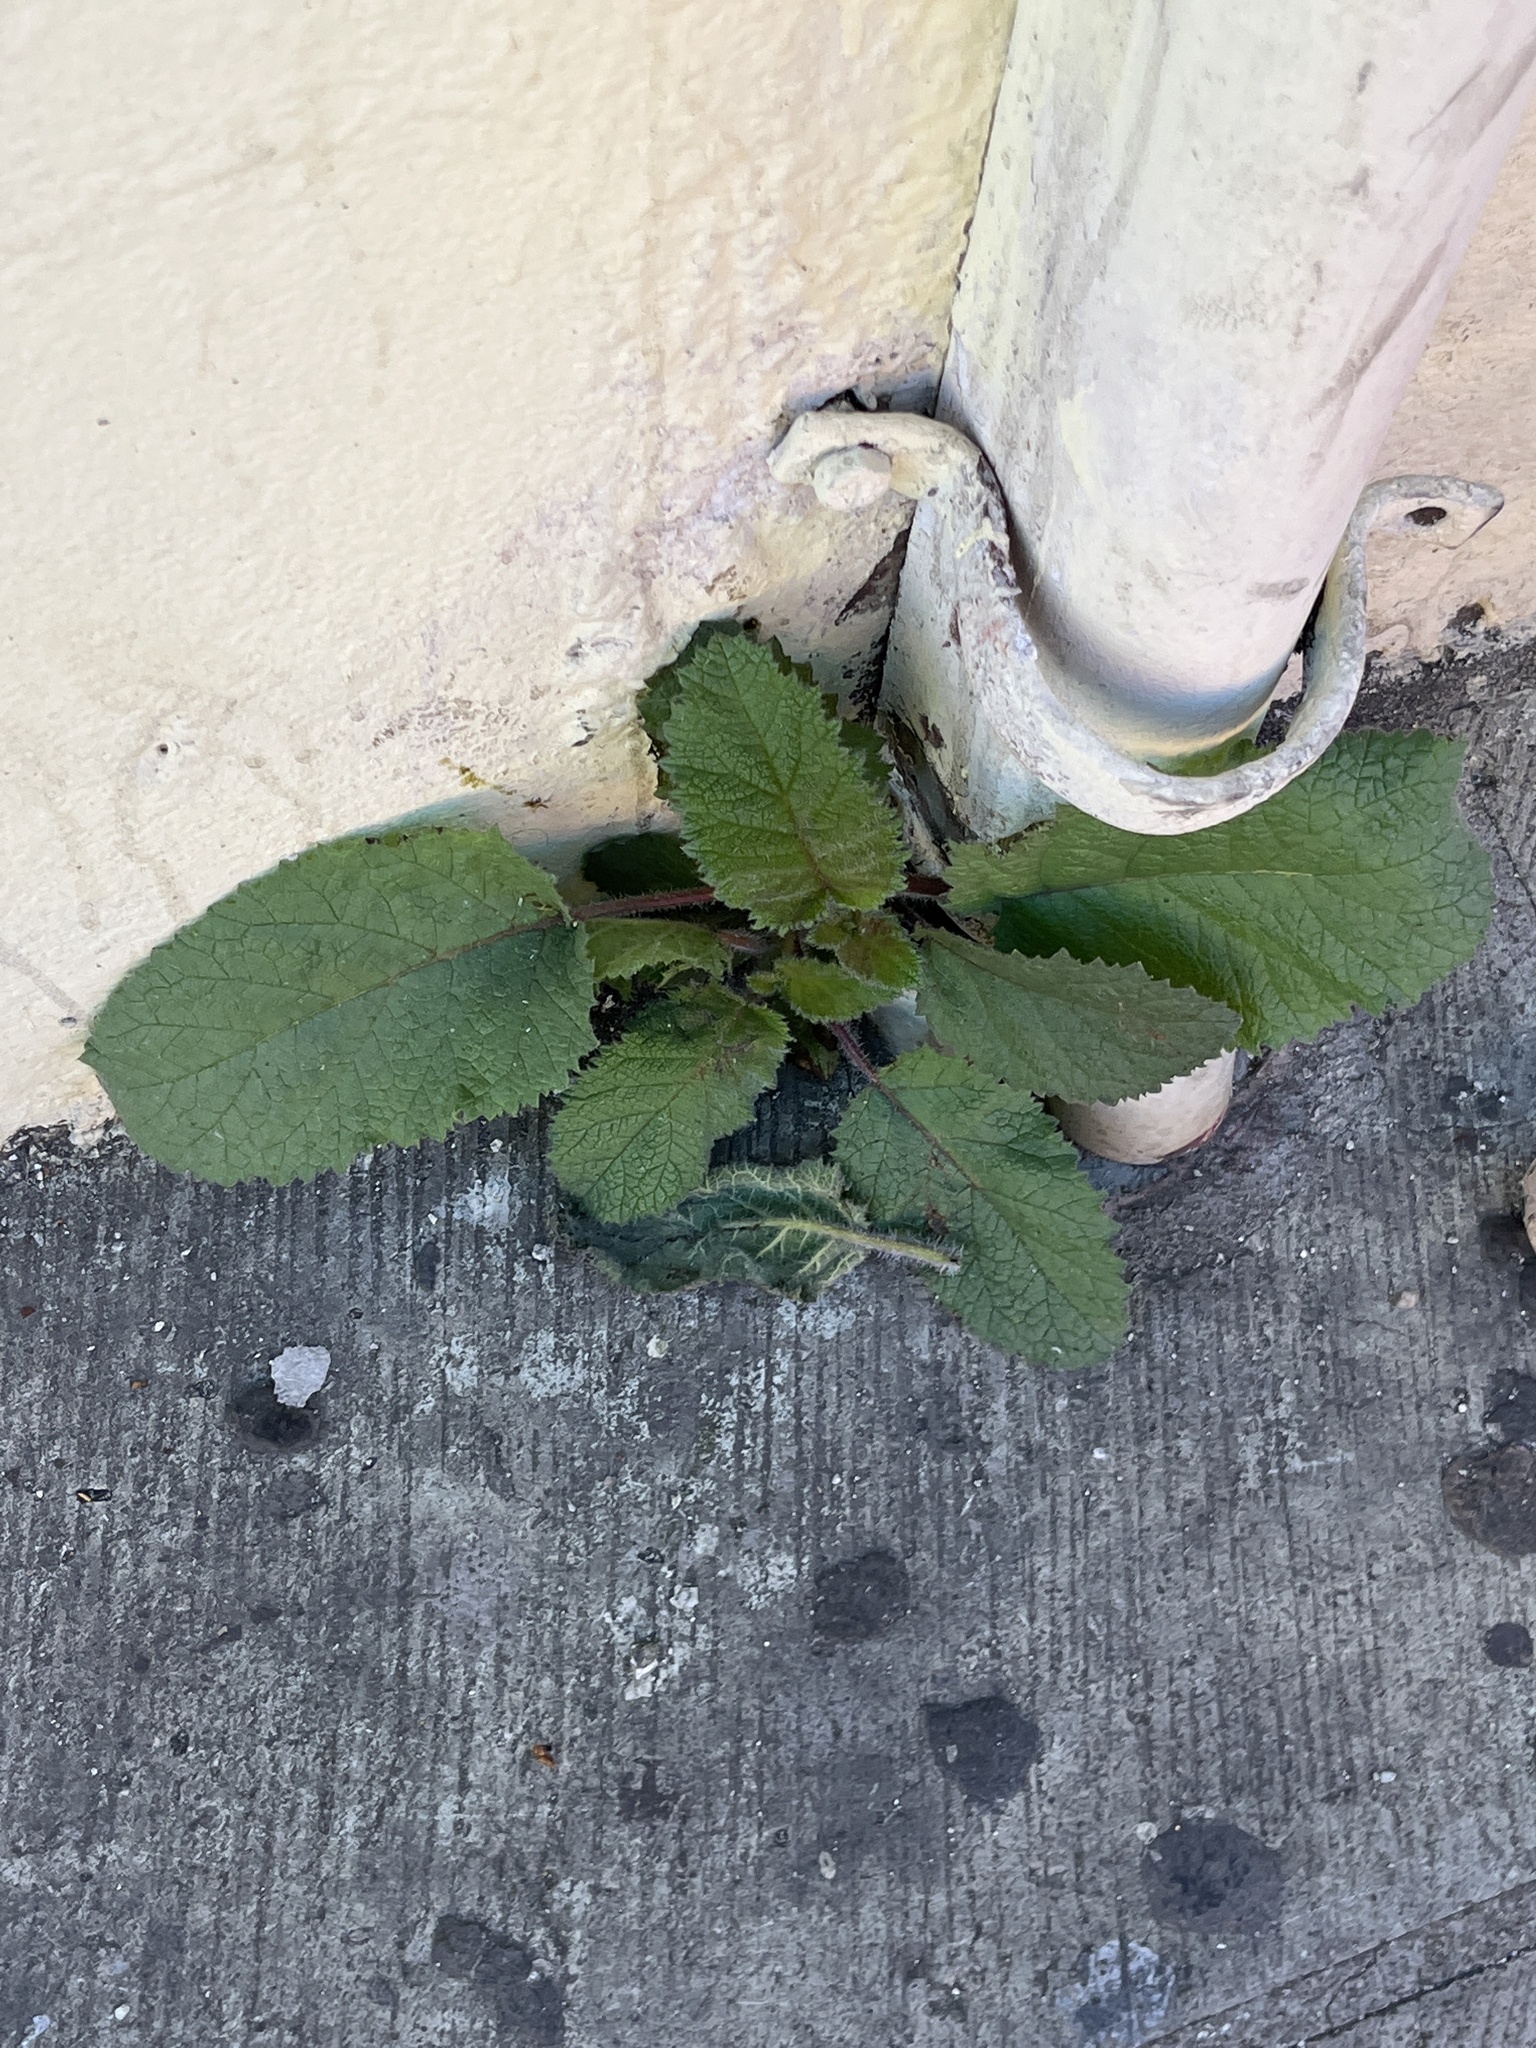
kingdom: Plantae
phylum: Tracheophyta
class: Magnoliopsida
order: Boraginales
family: Namaceae
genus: Wigandia
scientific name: Wigandia urens
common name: Caracus wigandia
